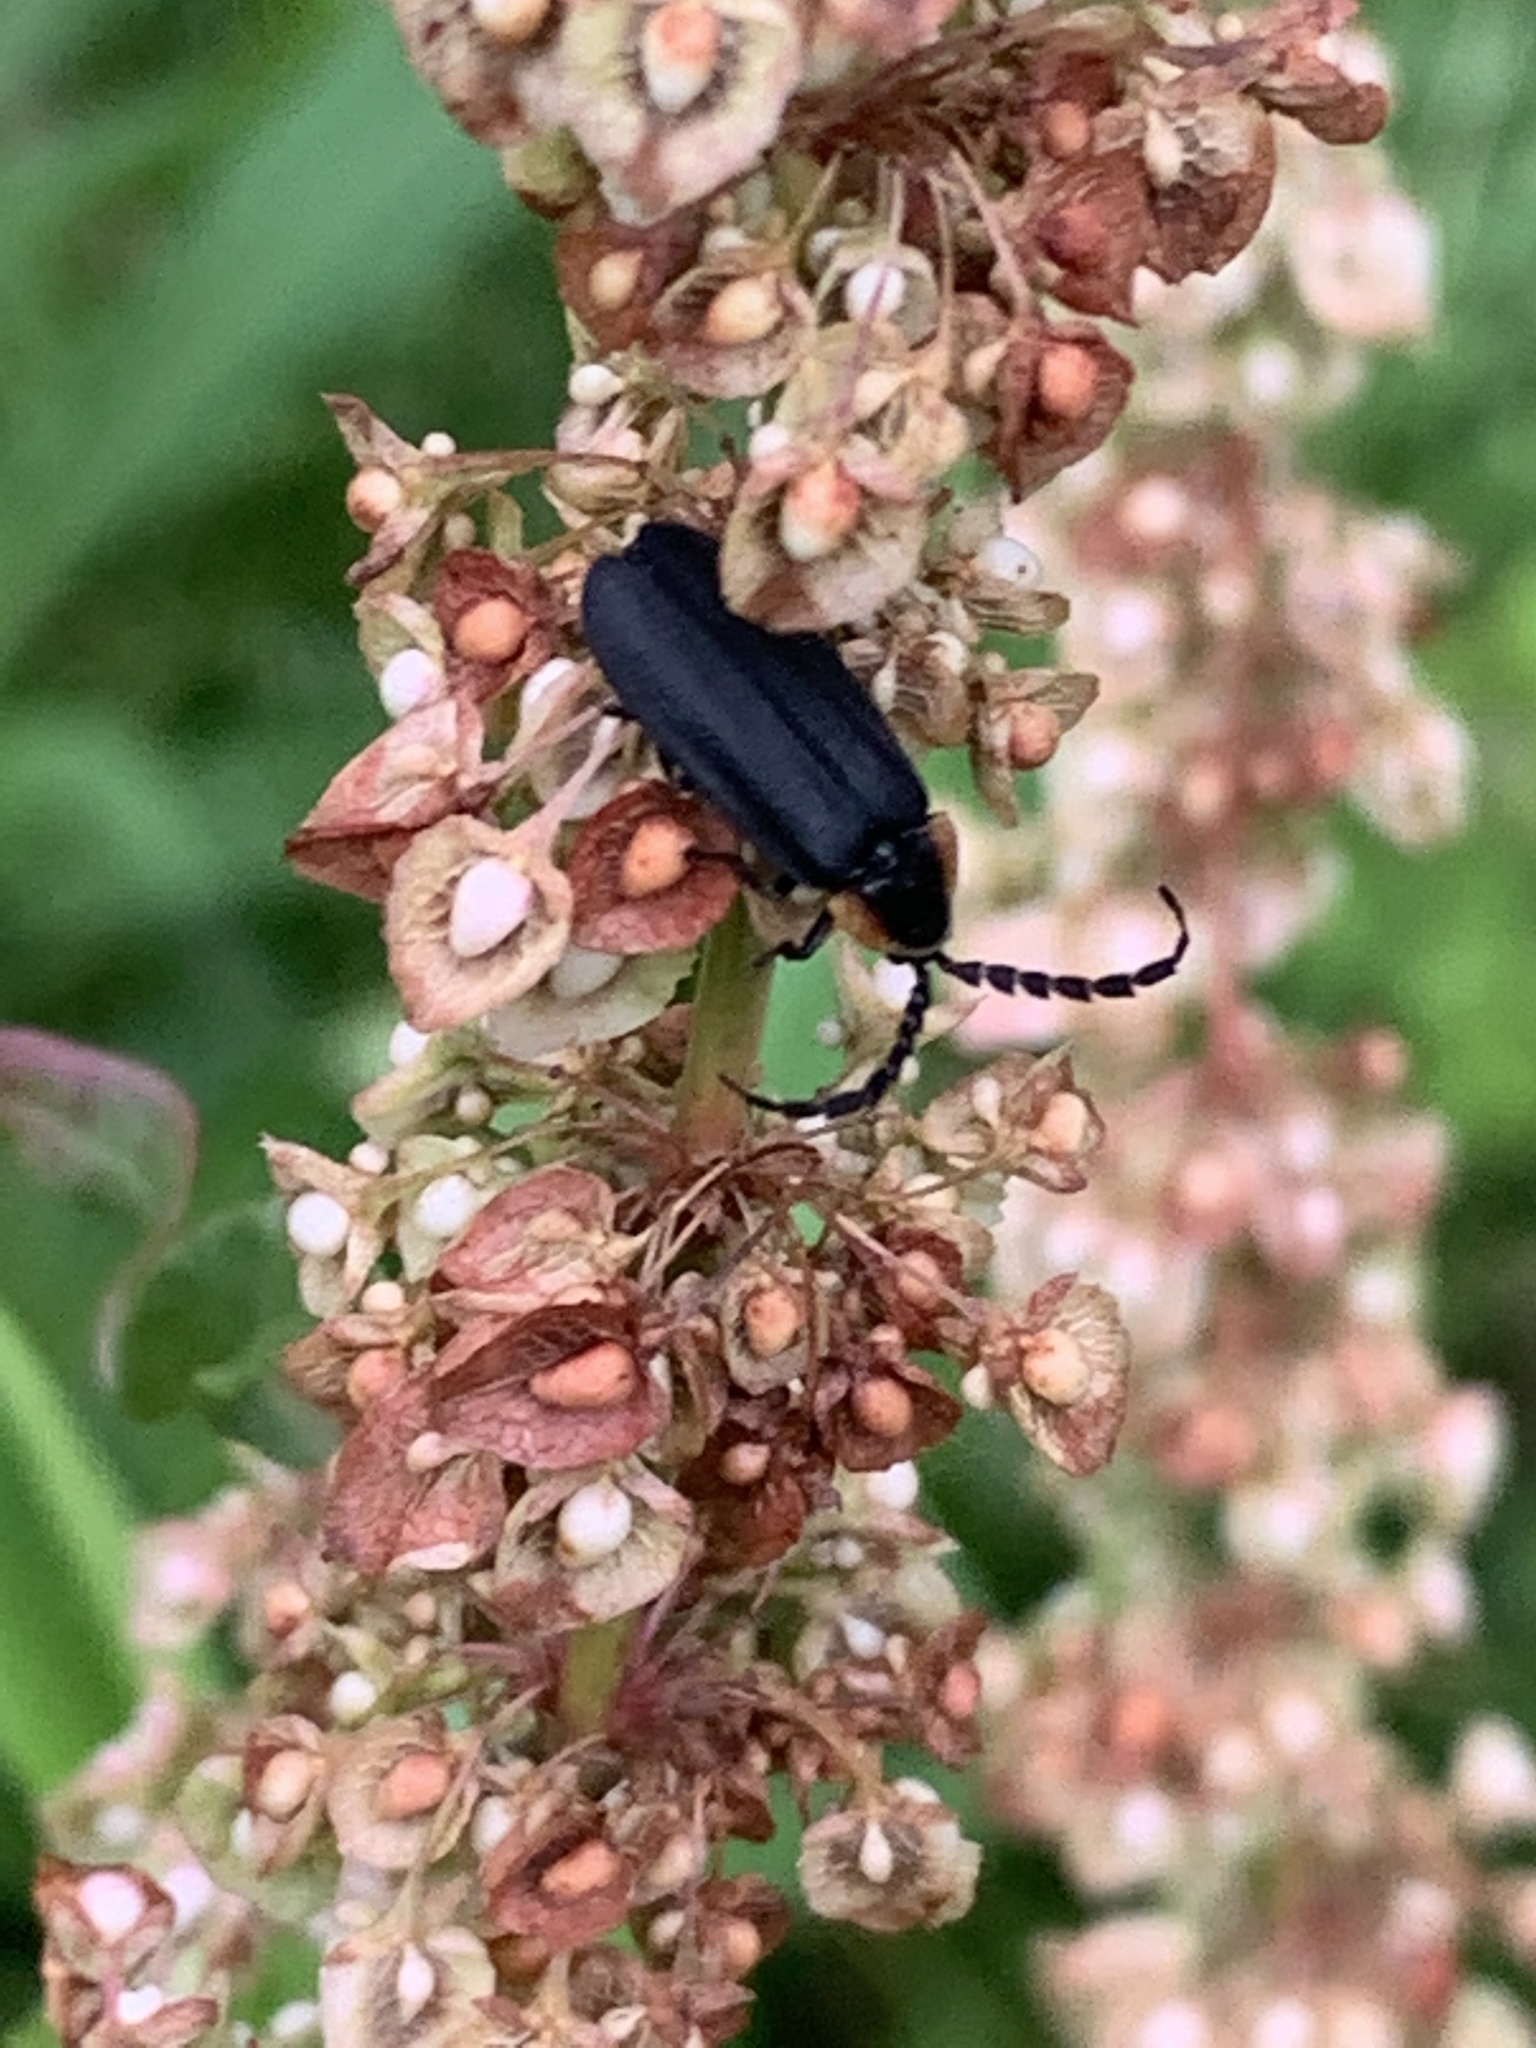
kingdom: Animalia
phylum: Arthropoda
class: Insecta
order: Coleoptera
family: Lampyridae
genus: Lucidota
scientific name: Lucidota atra
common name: Black firefly
